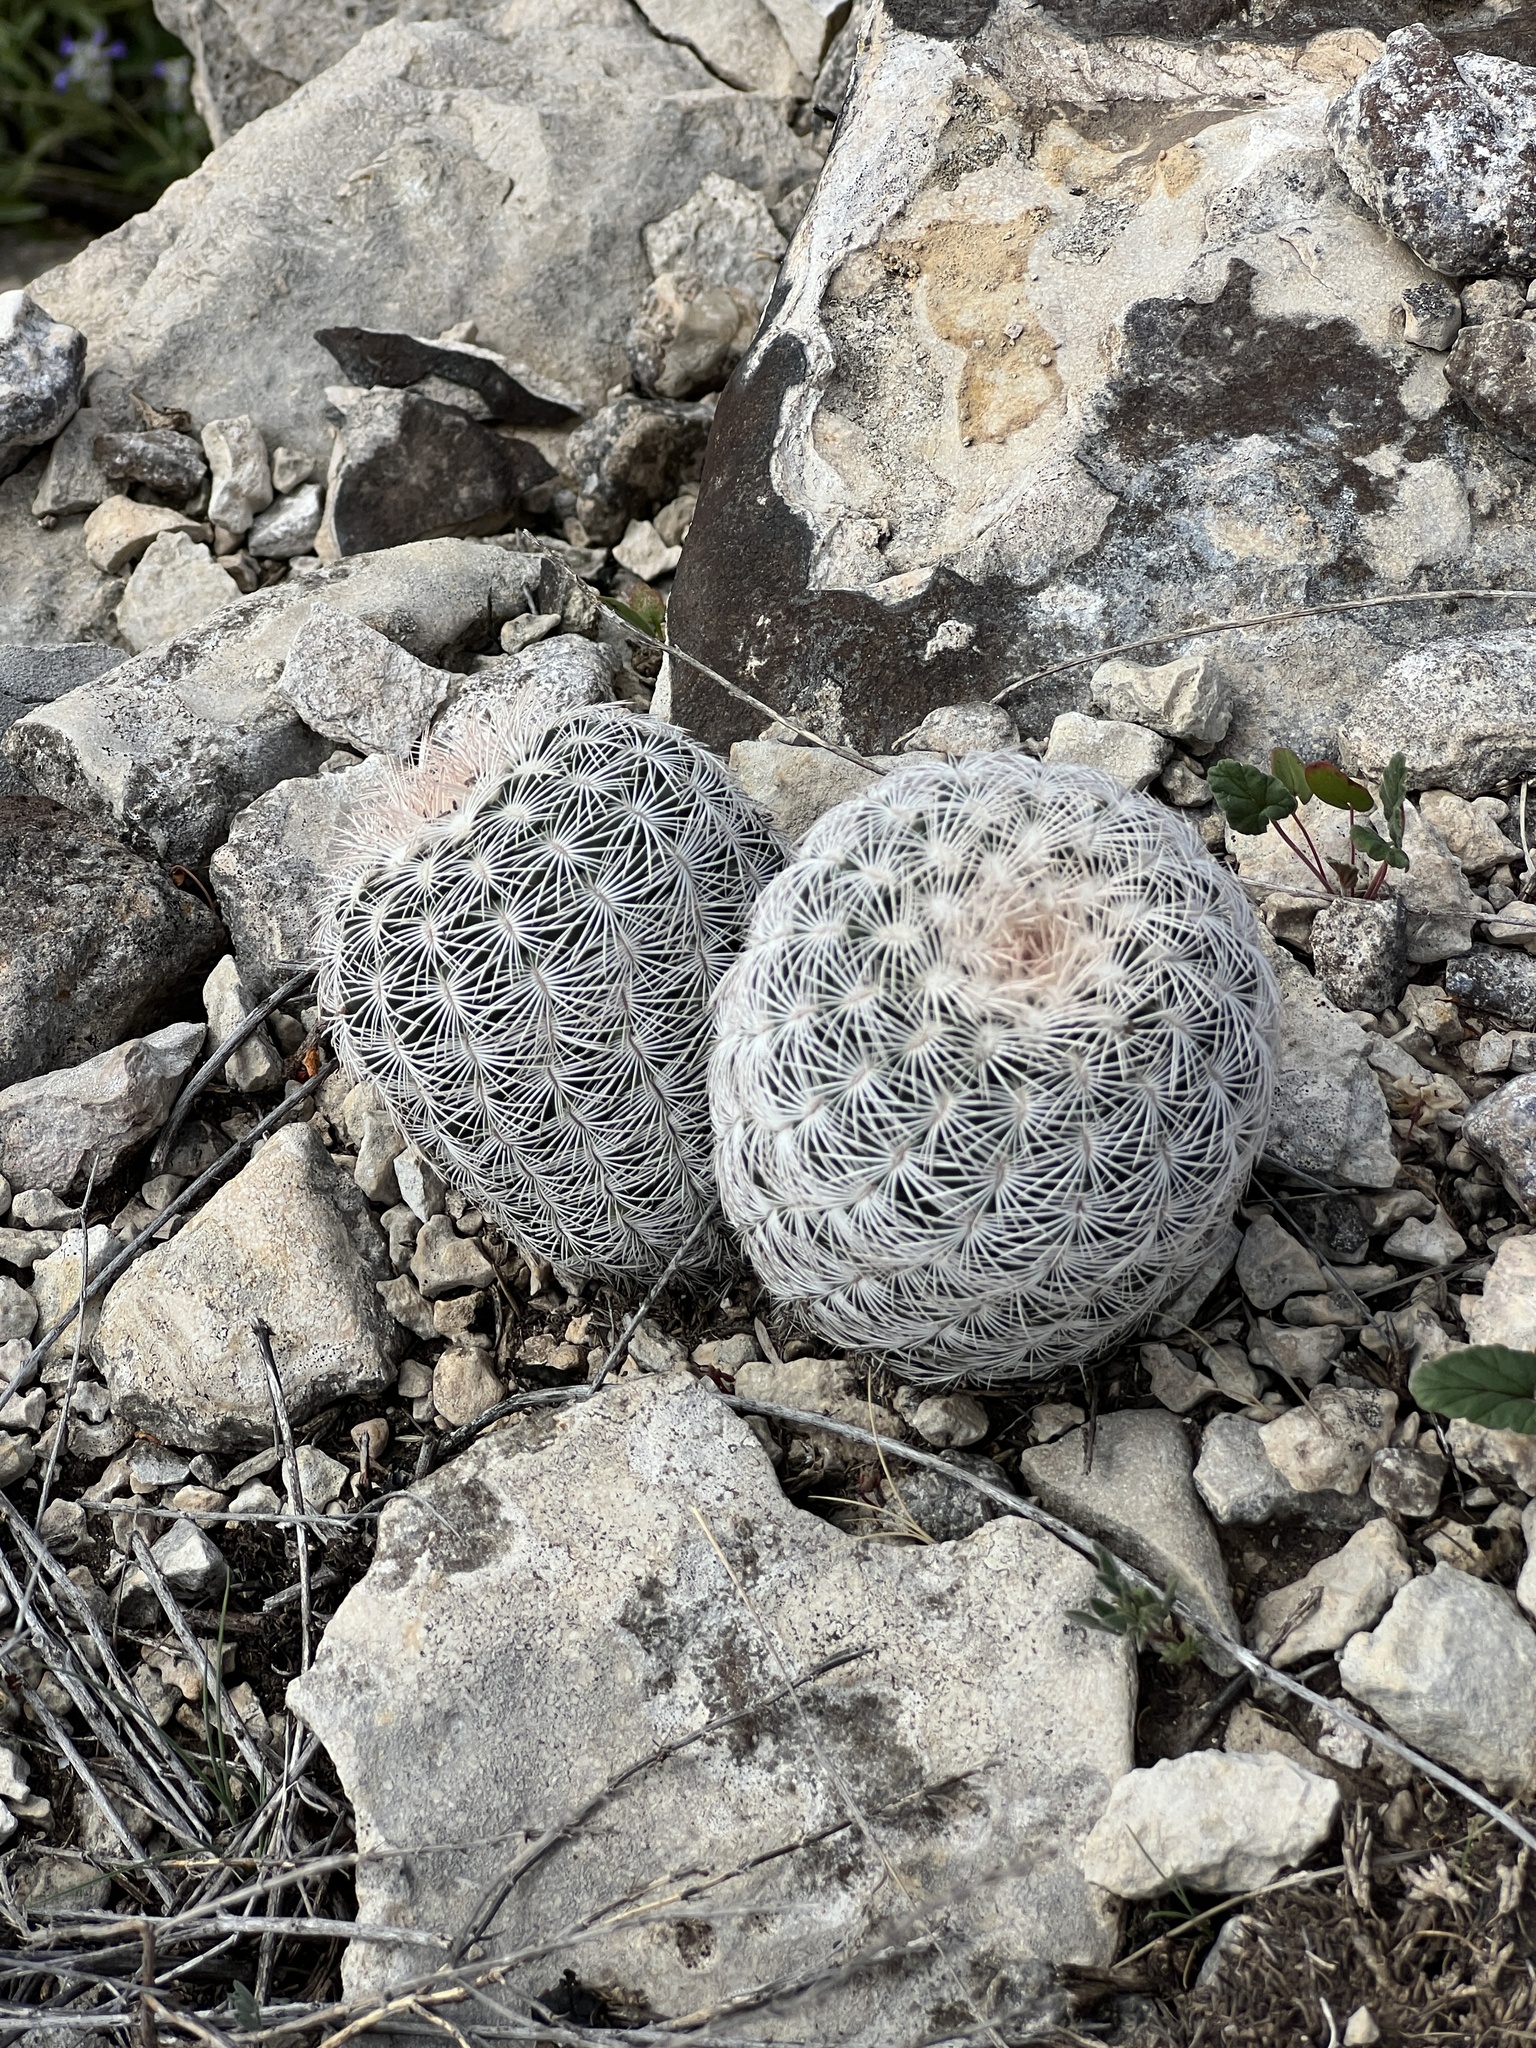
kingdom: Plantae
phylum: Tracheophyta
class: Magnoliopsida
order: Caryophyllales
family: Cactaceae
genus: Echinocereus
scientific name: Echinocereus reichenbachii
